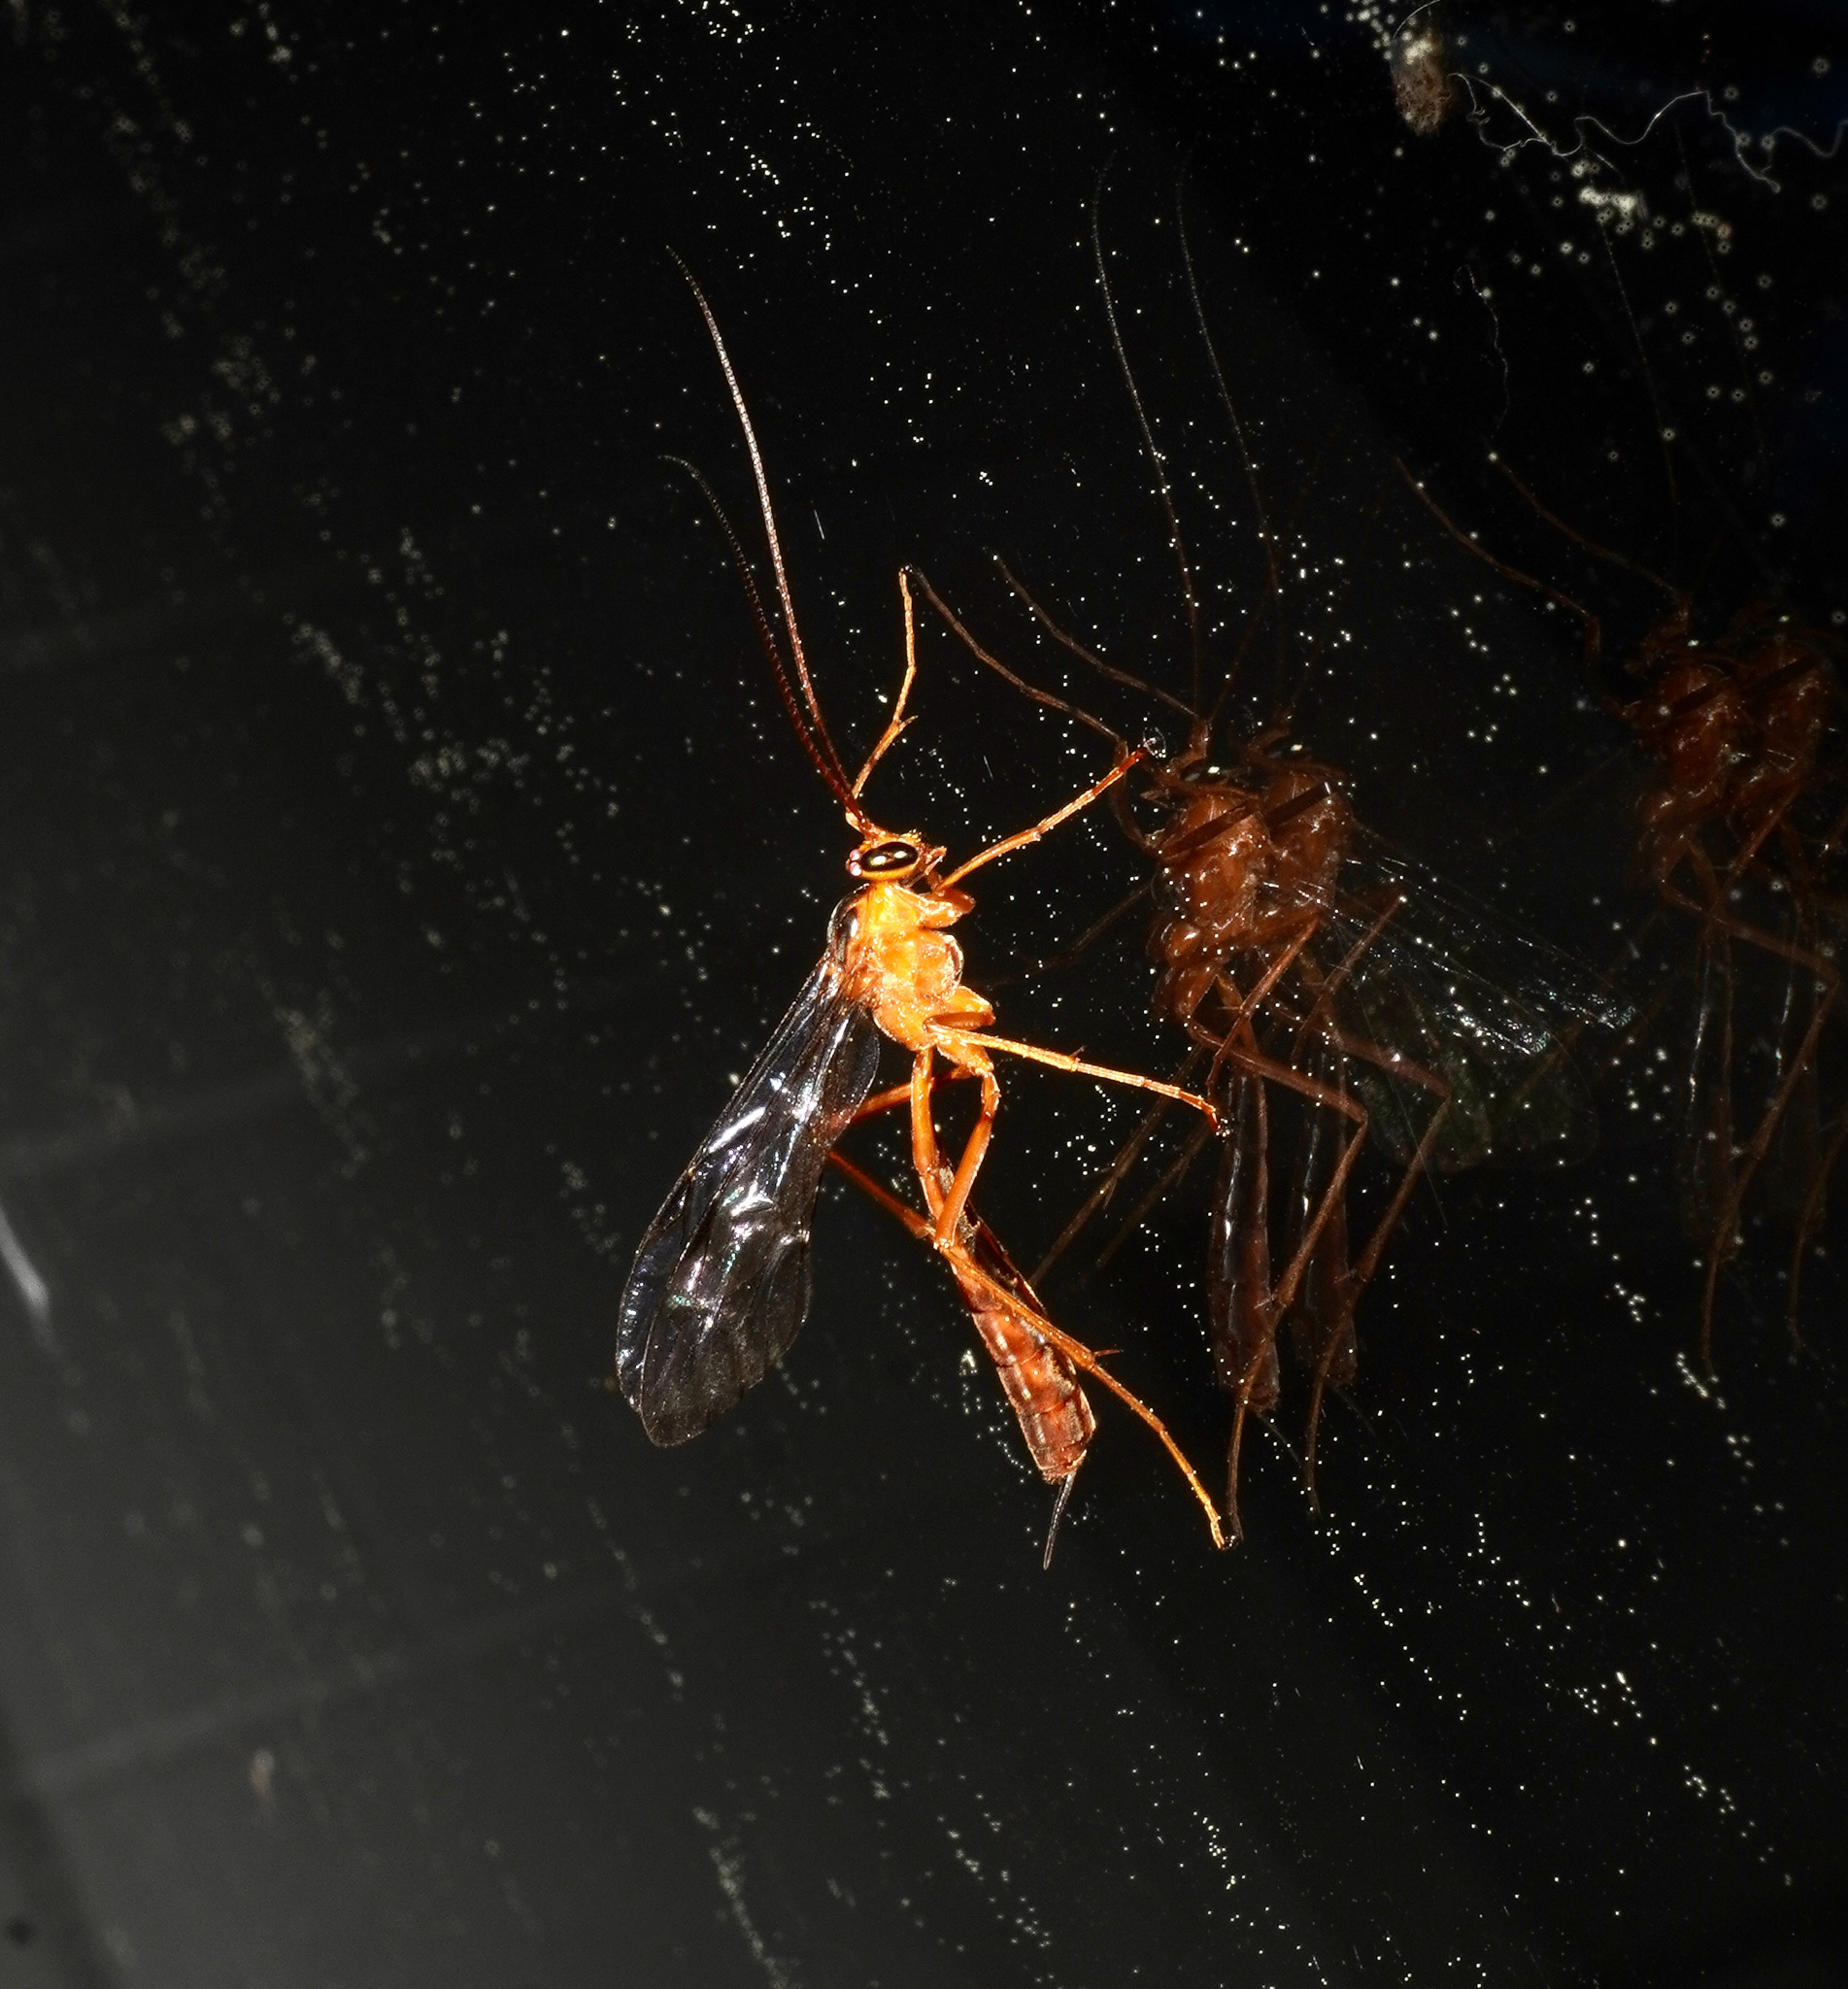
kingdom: Animalia
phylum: Arthropoda
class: Insecta
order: Hymenoptera
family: Ichneumonidae
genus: Netelia
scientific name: Netelia ephippiata
